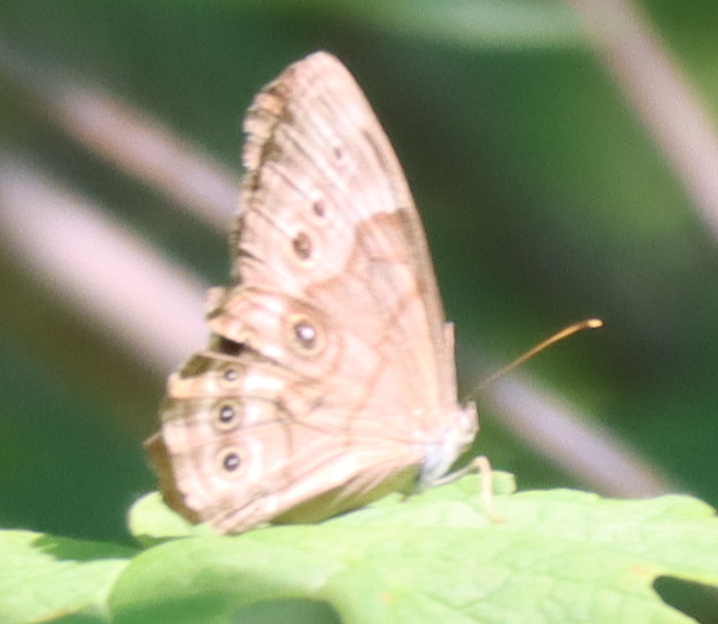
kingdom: Animalia
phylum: Arthropoda
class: Insecta
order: Lepidoptera
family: Nymphalidae
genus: Lethe
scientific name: Lethe anthedon
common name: Northern pearly-eye
